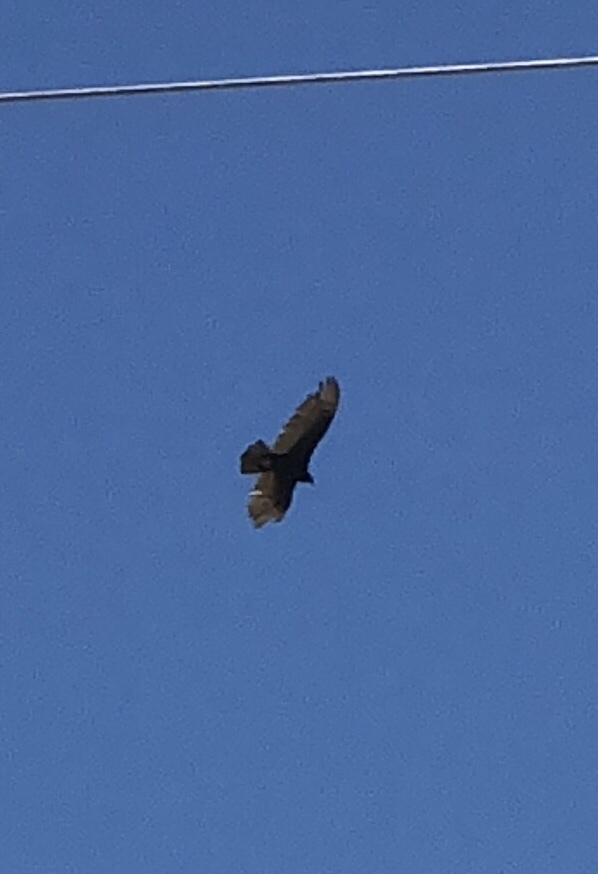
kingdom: Animalia
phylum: Chordata
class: Aves
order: Accipitriformes
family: Cathartidae
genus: Cathartes
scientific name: Cathartes aura
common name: Turkey vulture
